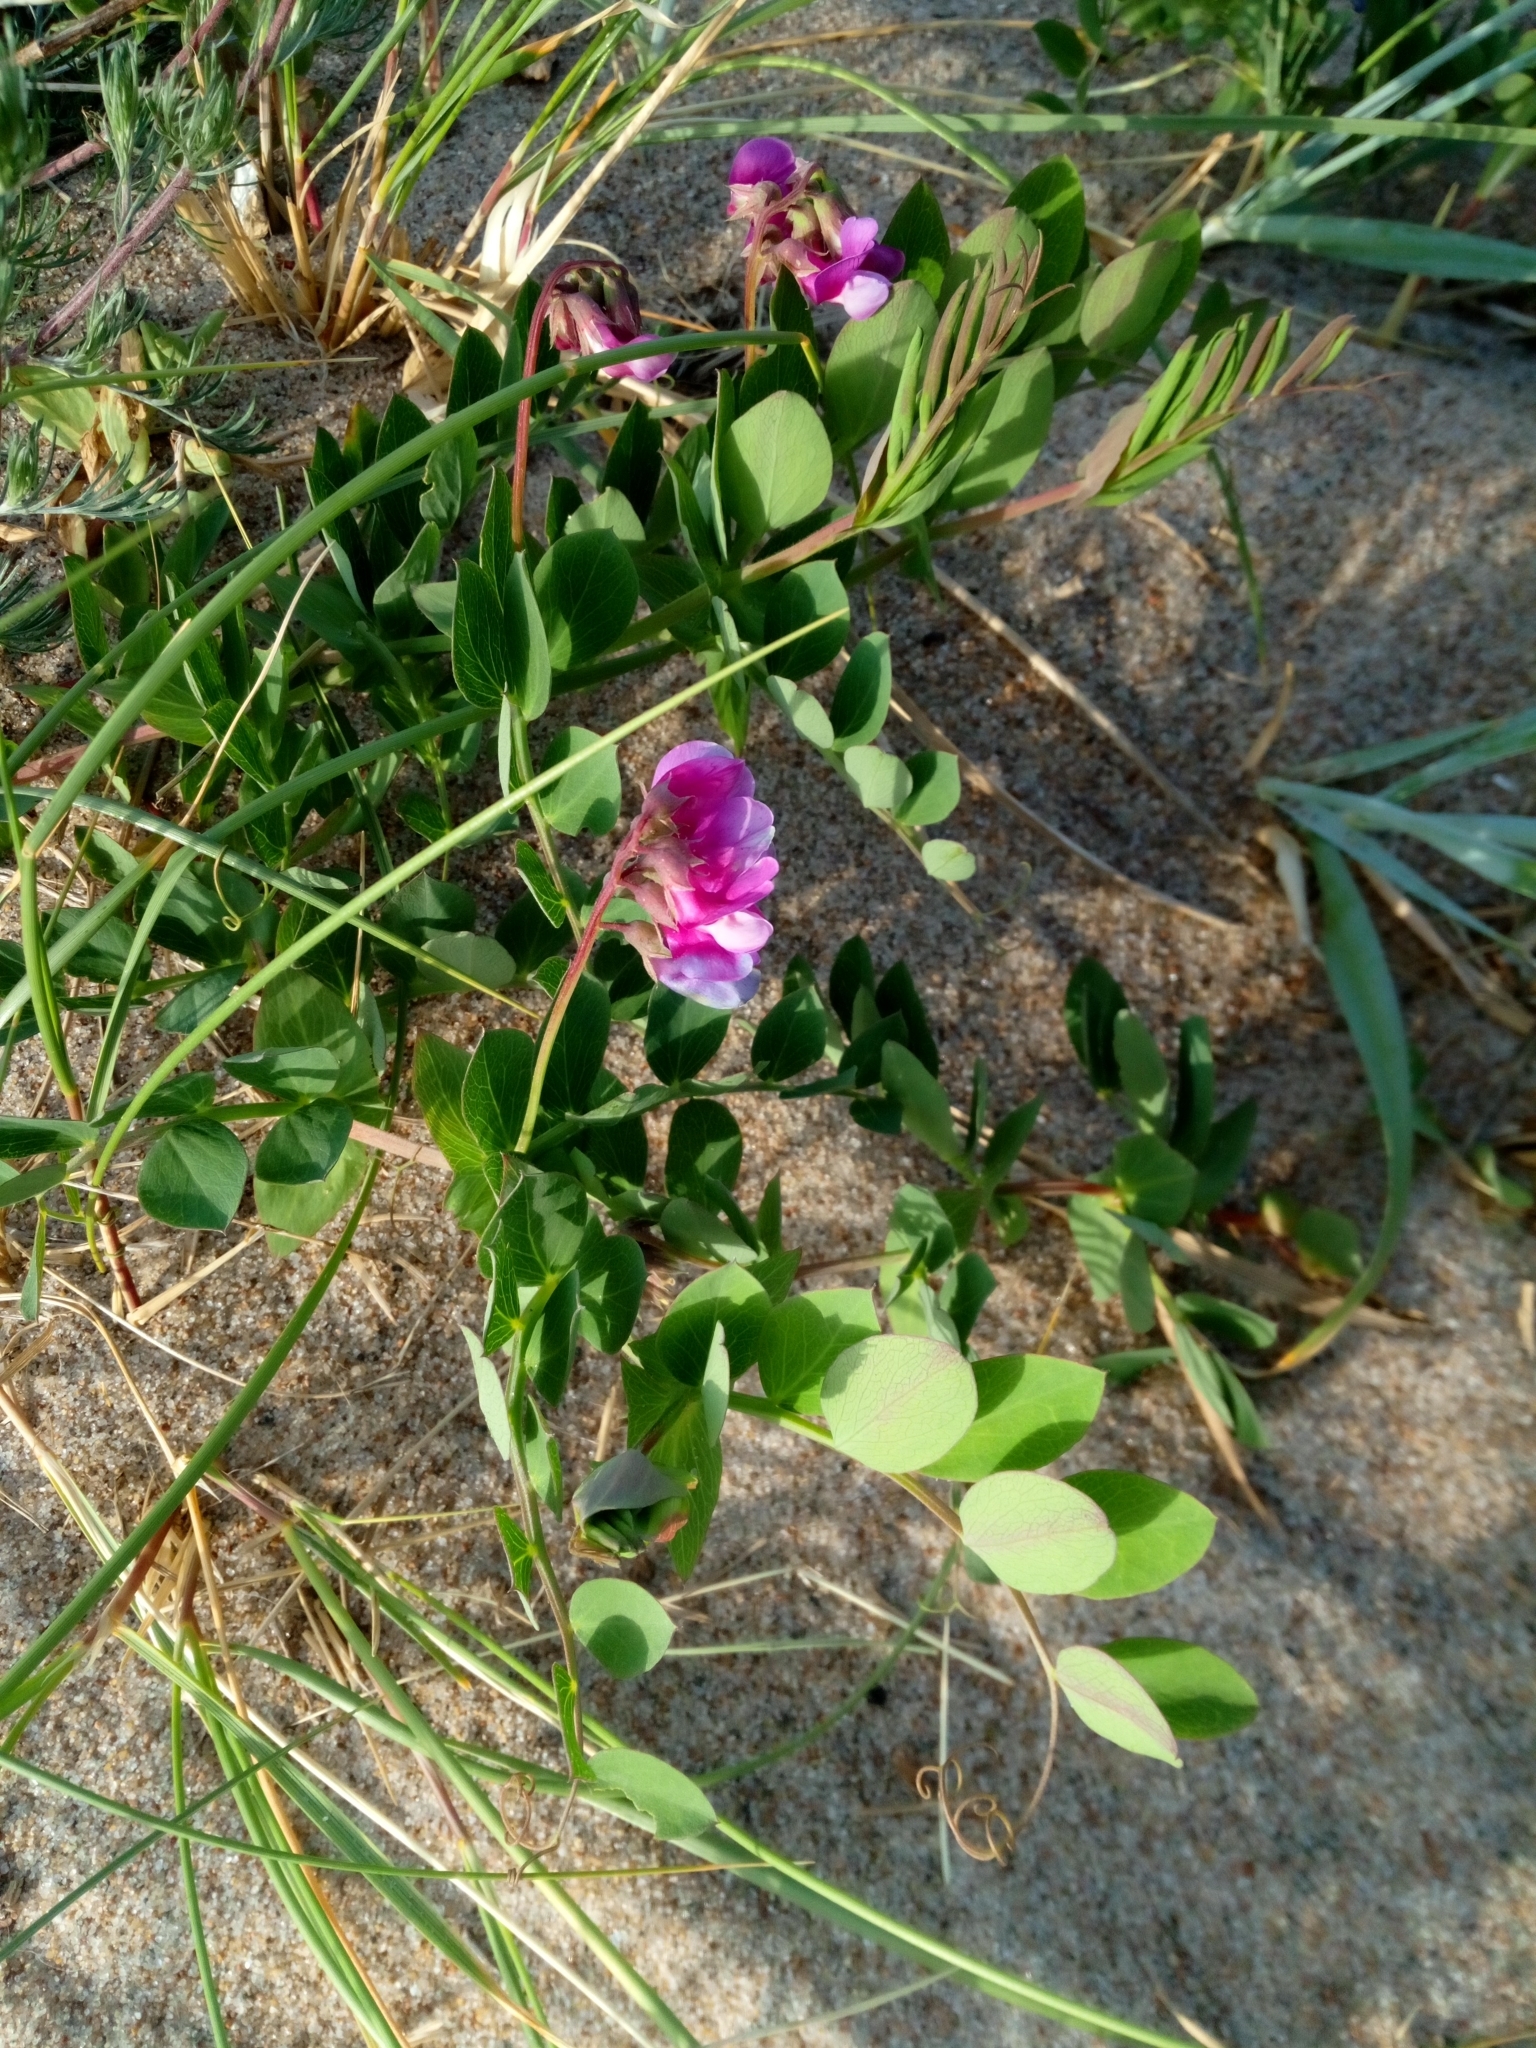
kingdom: Plantae
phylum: Tracheophyta
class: Magnoliopsida
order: Fabales
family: Fabaceae
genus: Lathyrus
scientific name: Lathyrus japonicus
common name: Sea pea
